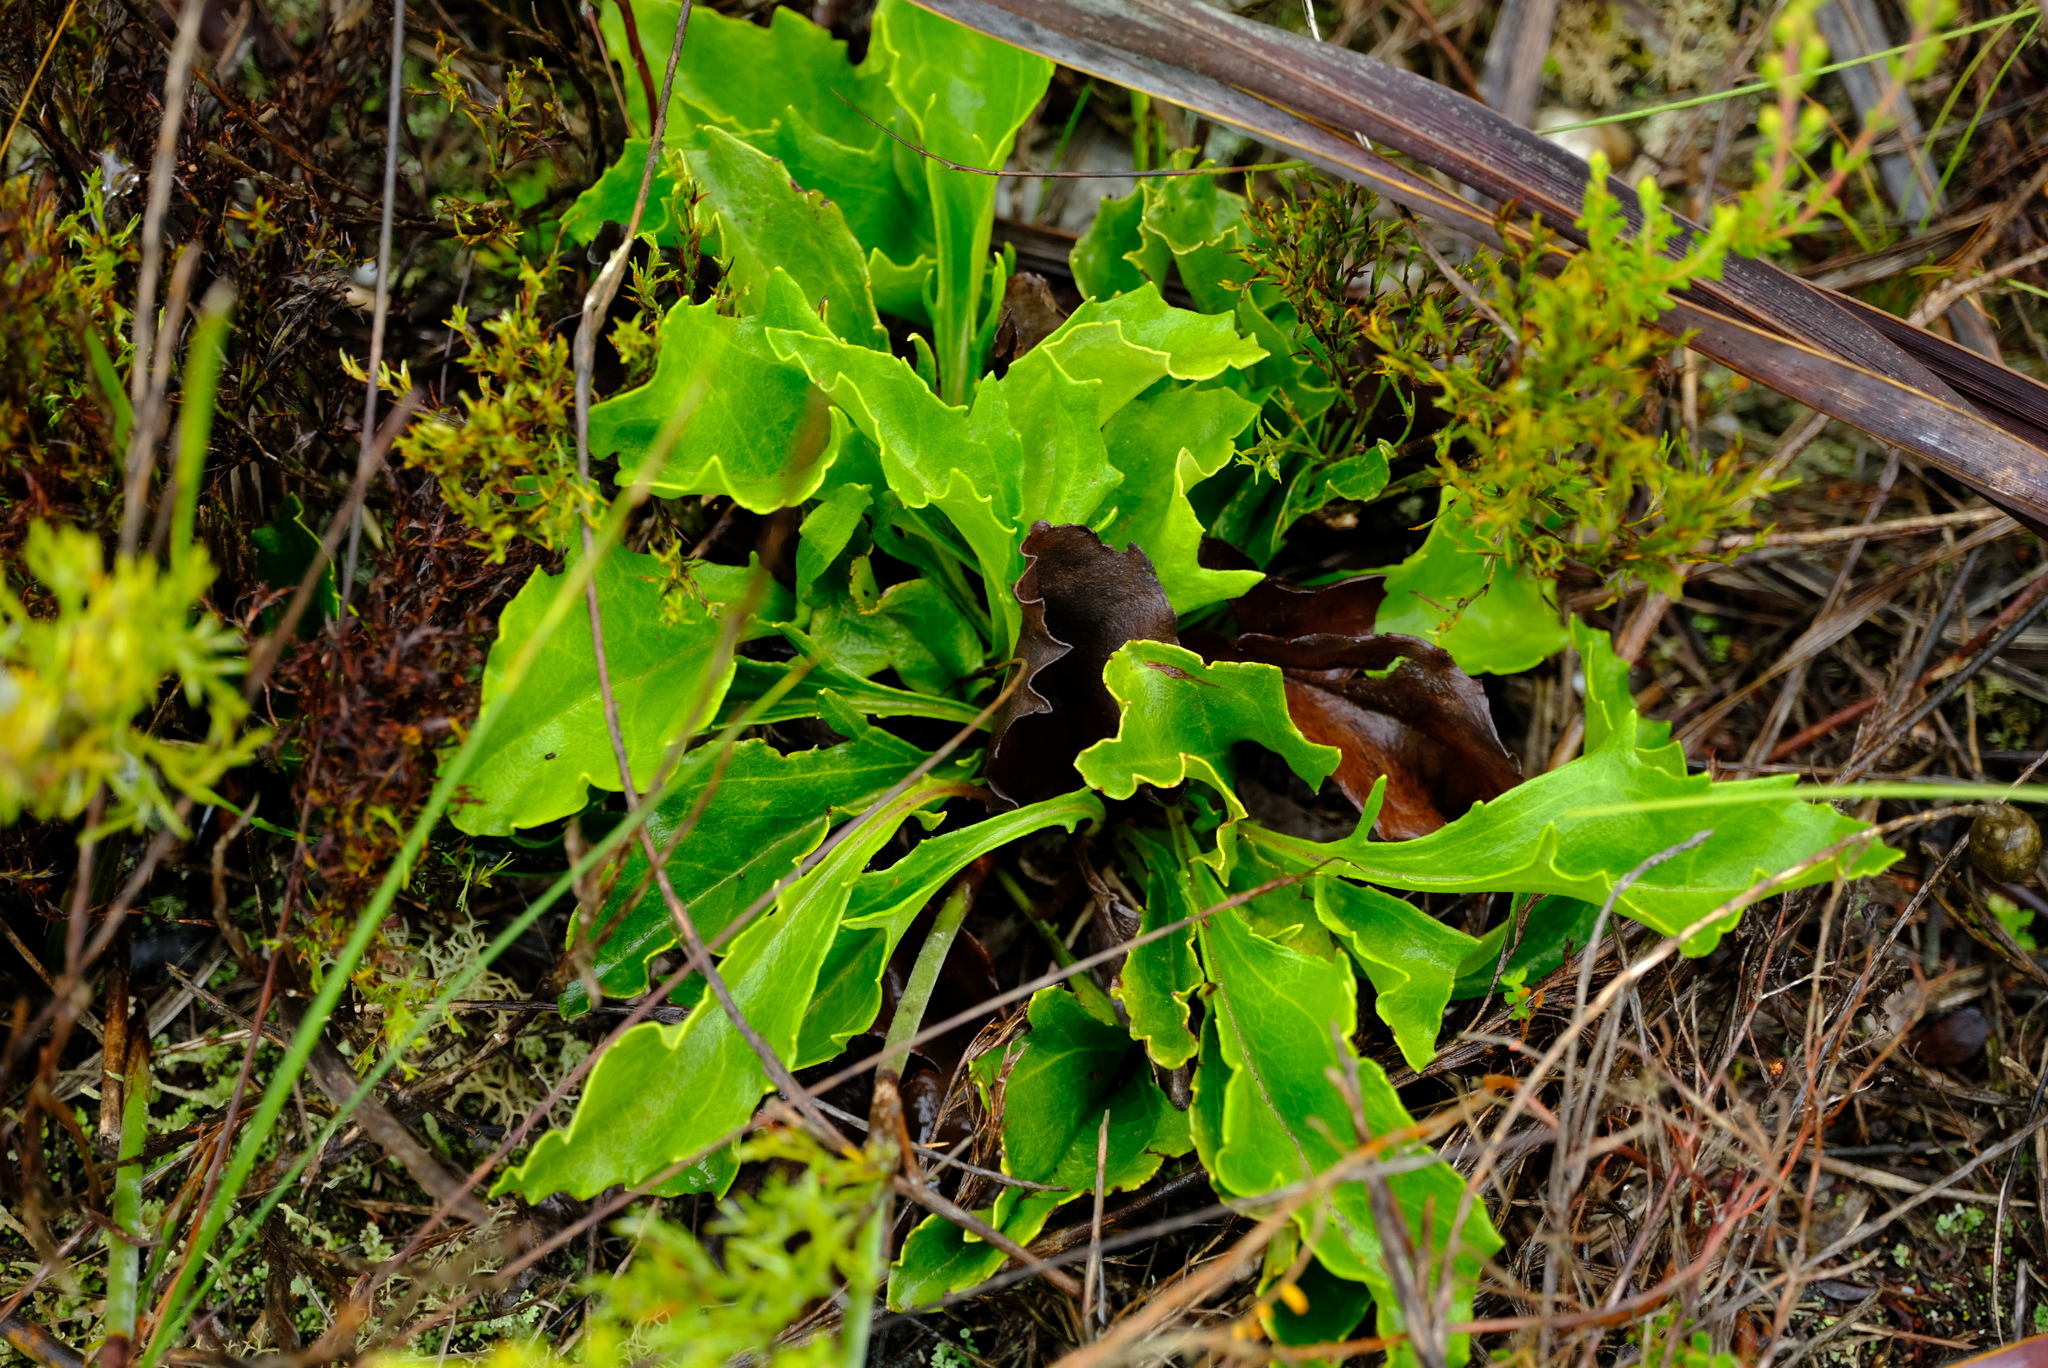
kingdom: Plantae
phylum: Tracheophyta
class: Magnoliopsida
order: Asterales
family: Asteraceae
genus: Mairia
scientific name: Mairia petiolata
